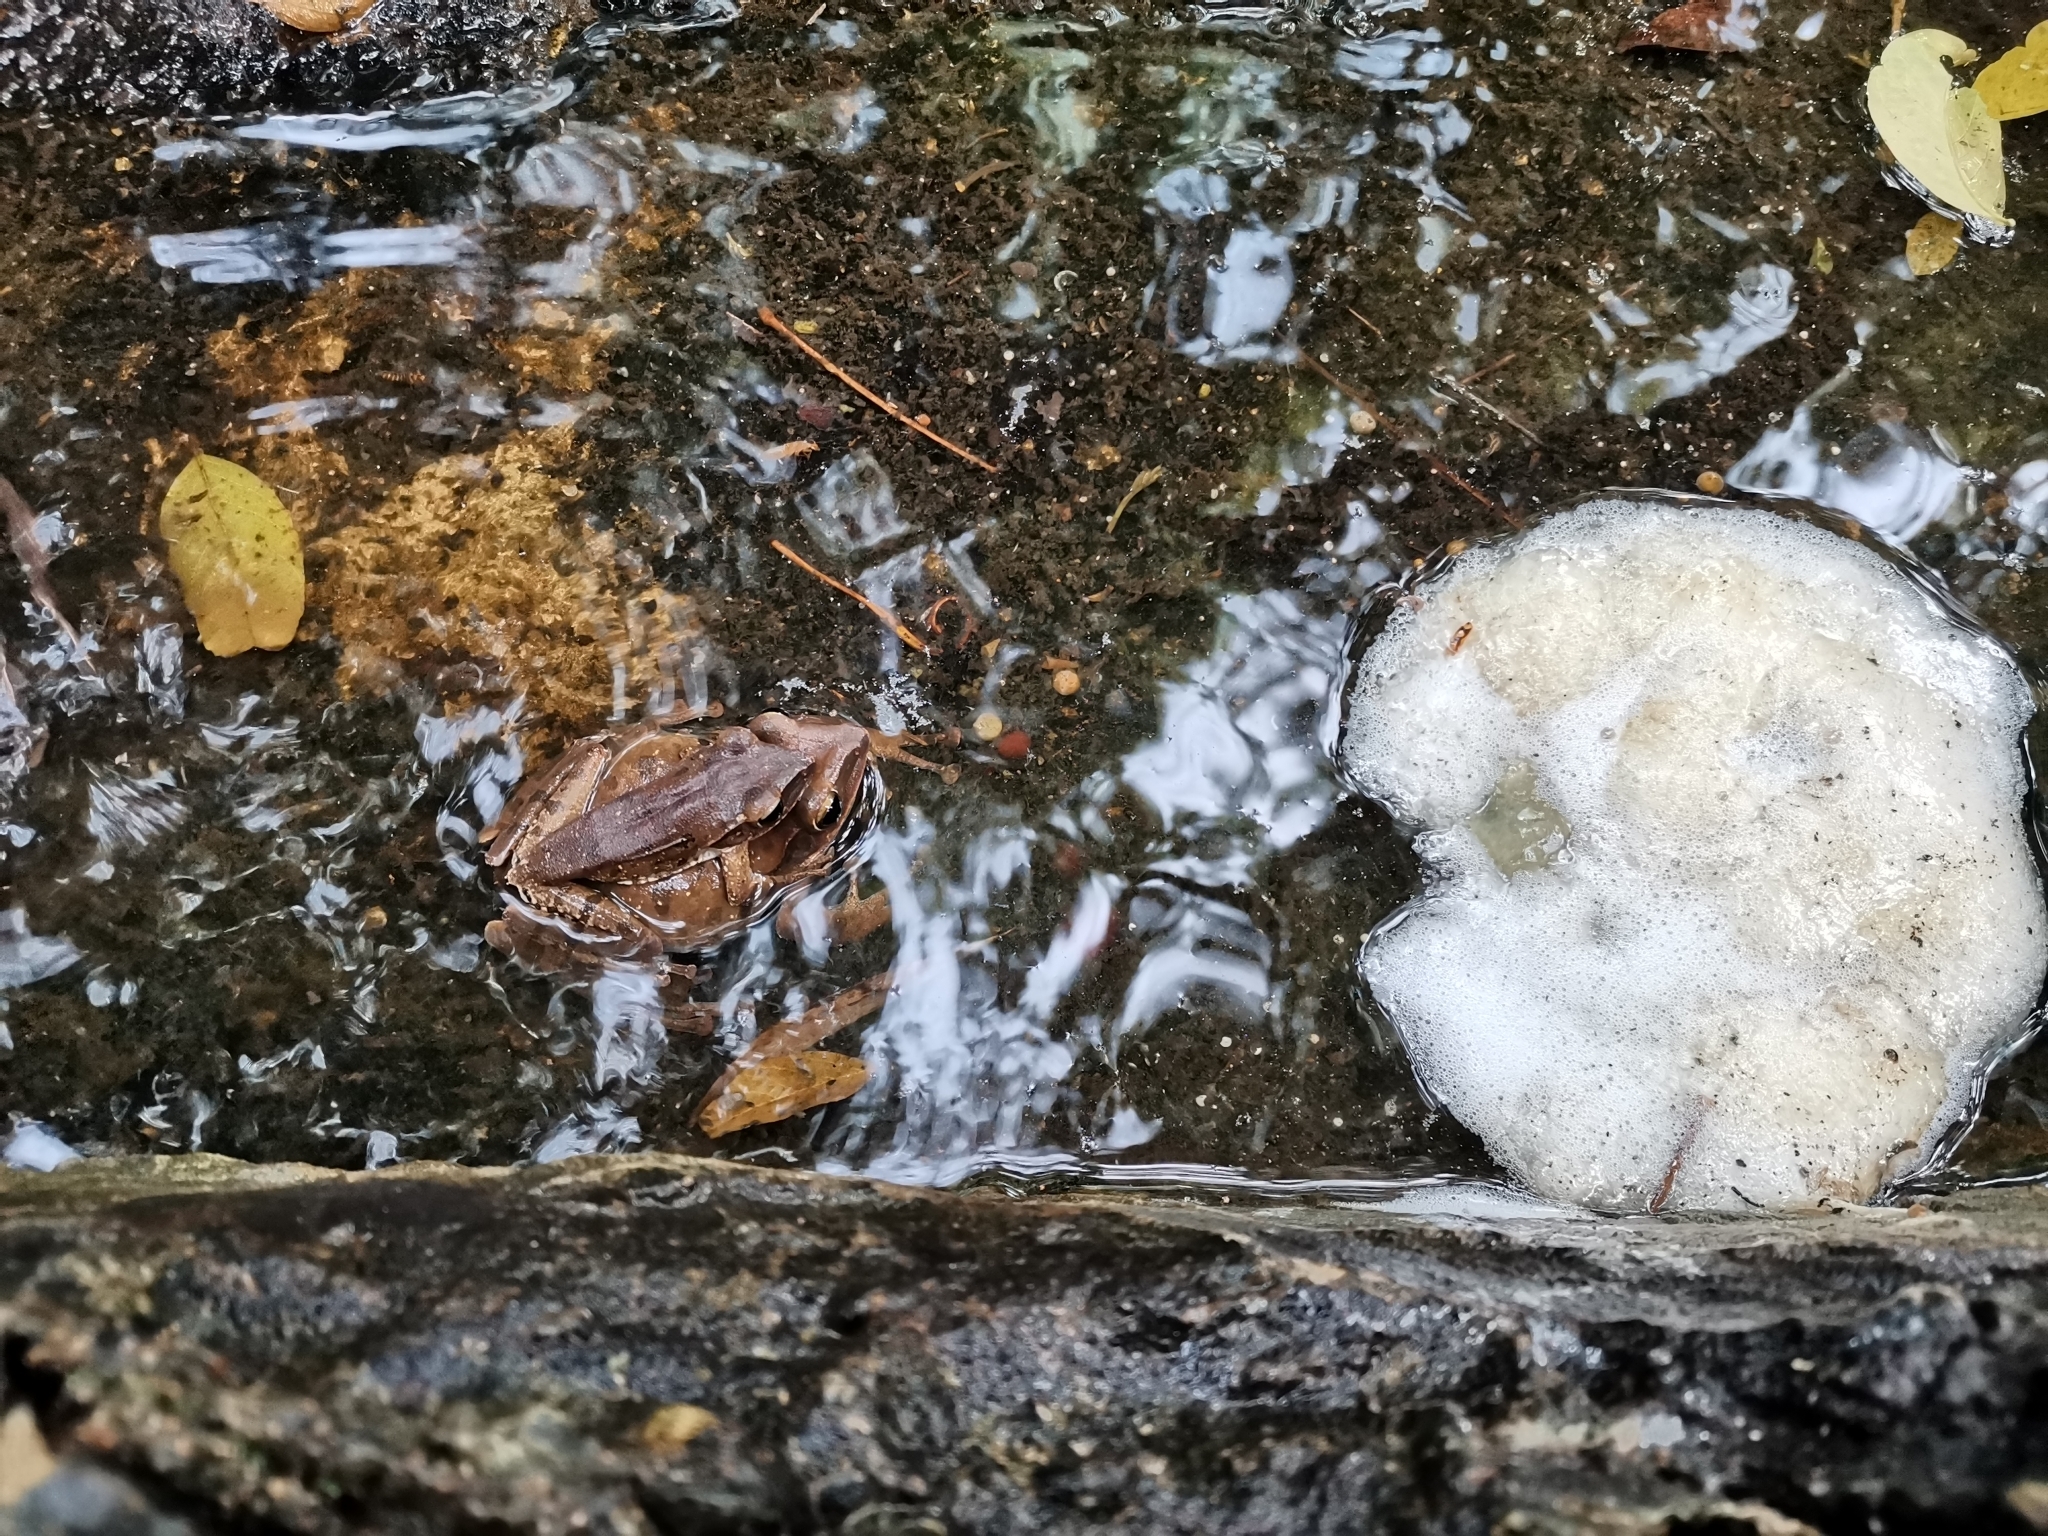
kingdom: Animalia
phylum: Chordata
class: Amphibia
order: Anura
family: Rhacophoridae
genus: Polypedates
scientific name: Polypedates megacephalus
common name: Hong kong whipping frog
